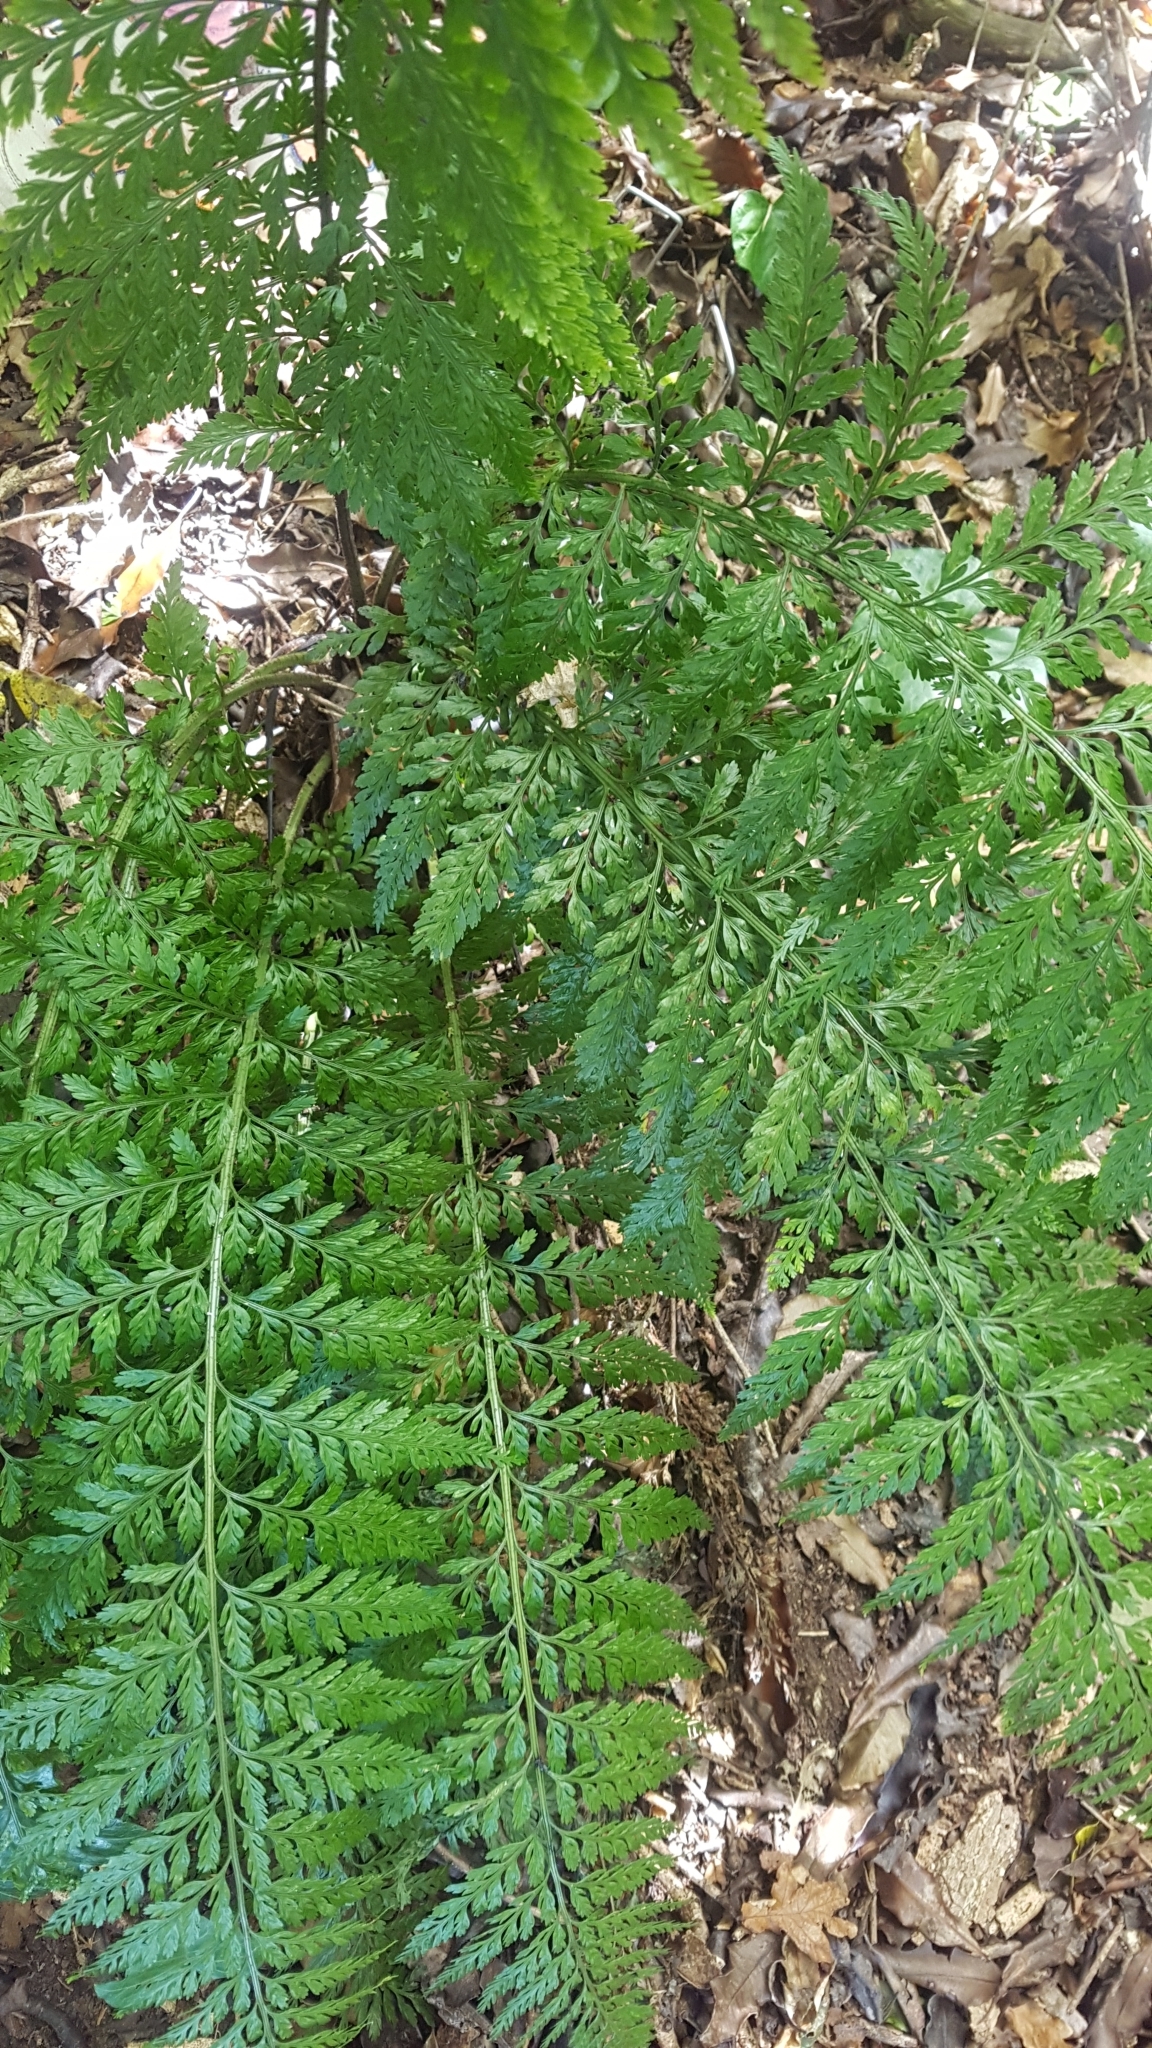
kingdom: Plantae
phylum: Tracheophyta
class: Polypodiopsida
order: Polypodiales
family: Aspleniaceae
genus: Asplenium
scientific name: Asplenium
